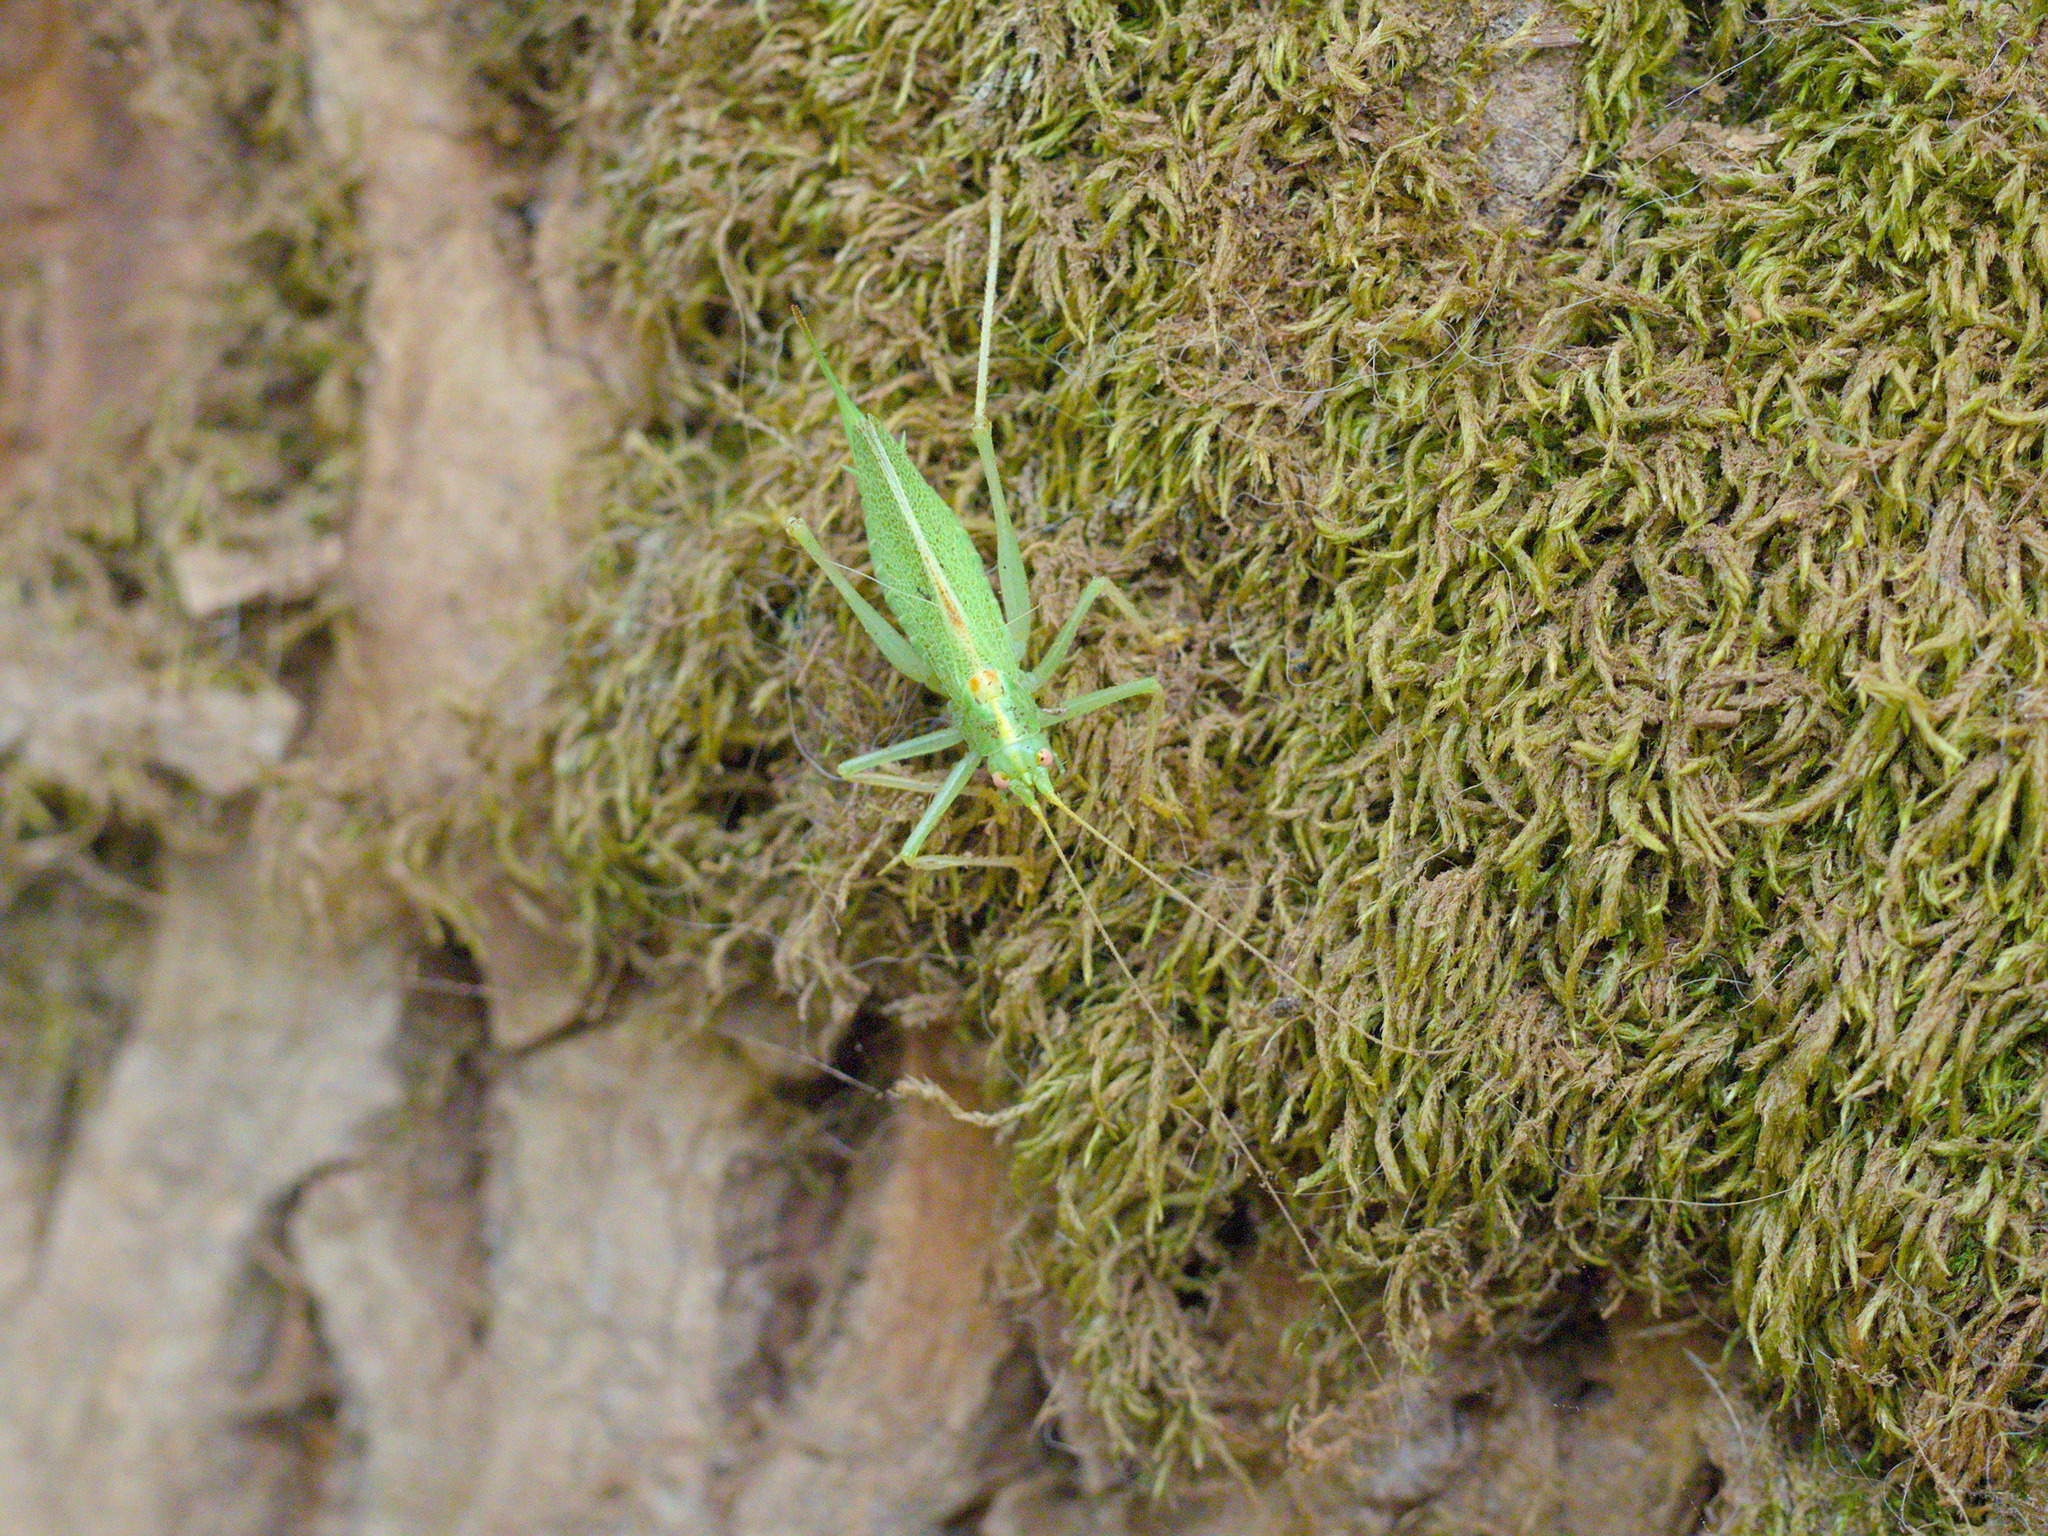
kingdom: Animalia
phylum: Arthropoda
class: Insecta
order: Orthoptera
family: Tettigoniidae
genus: Meconema
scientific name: Meconema thalassinum
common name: Oak bush-cricket
